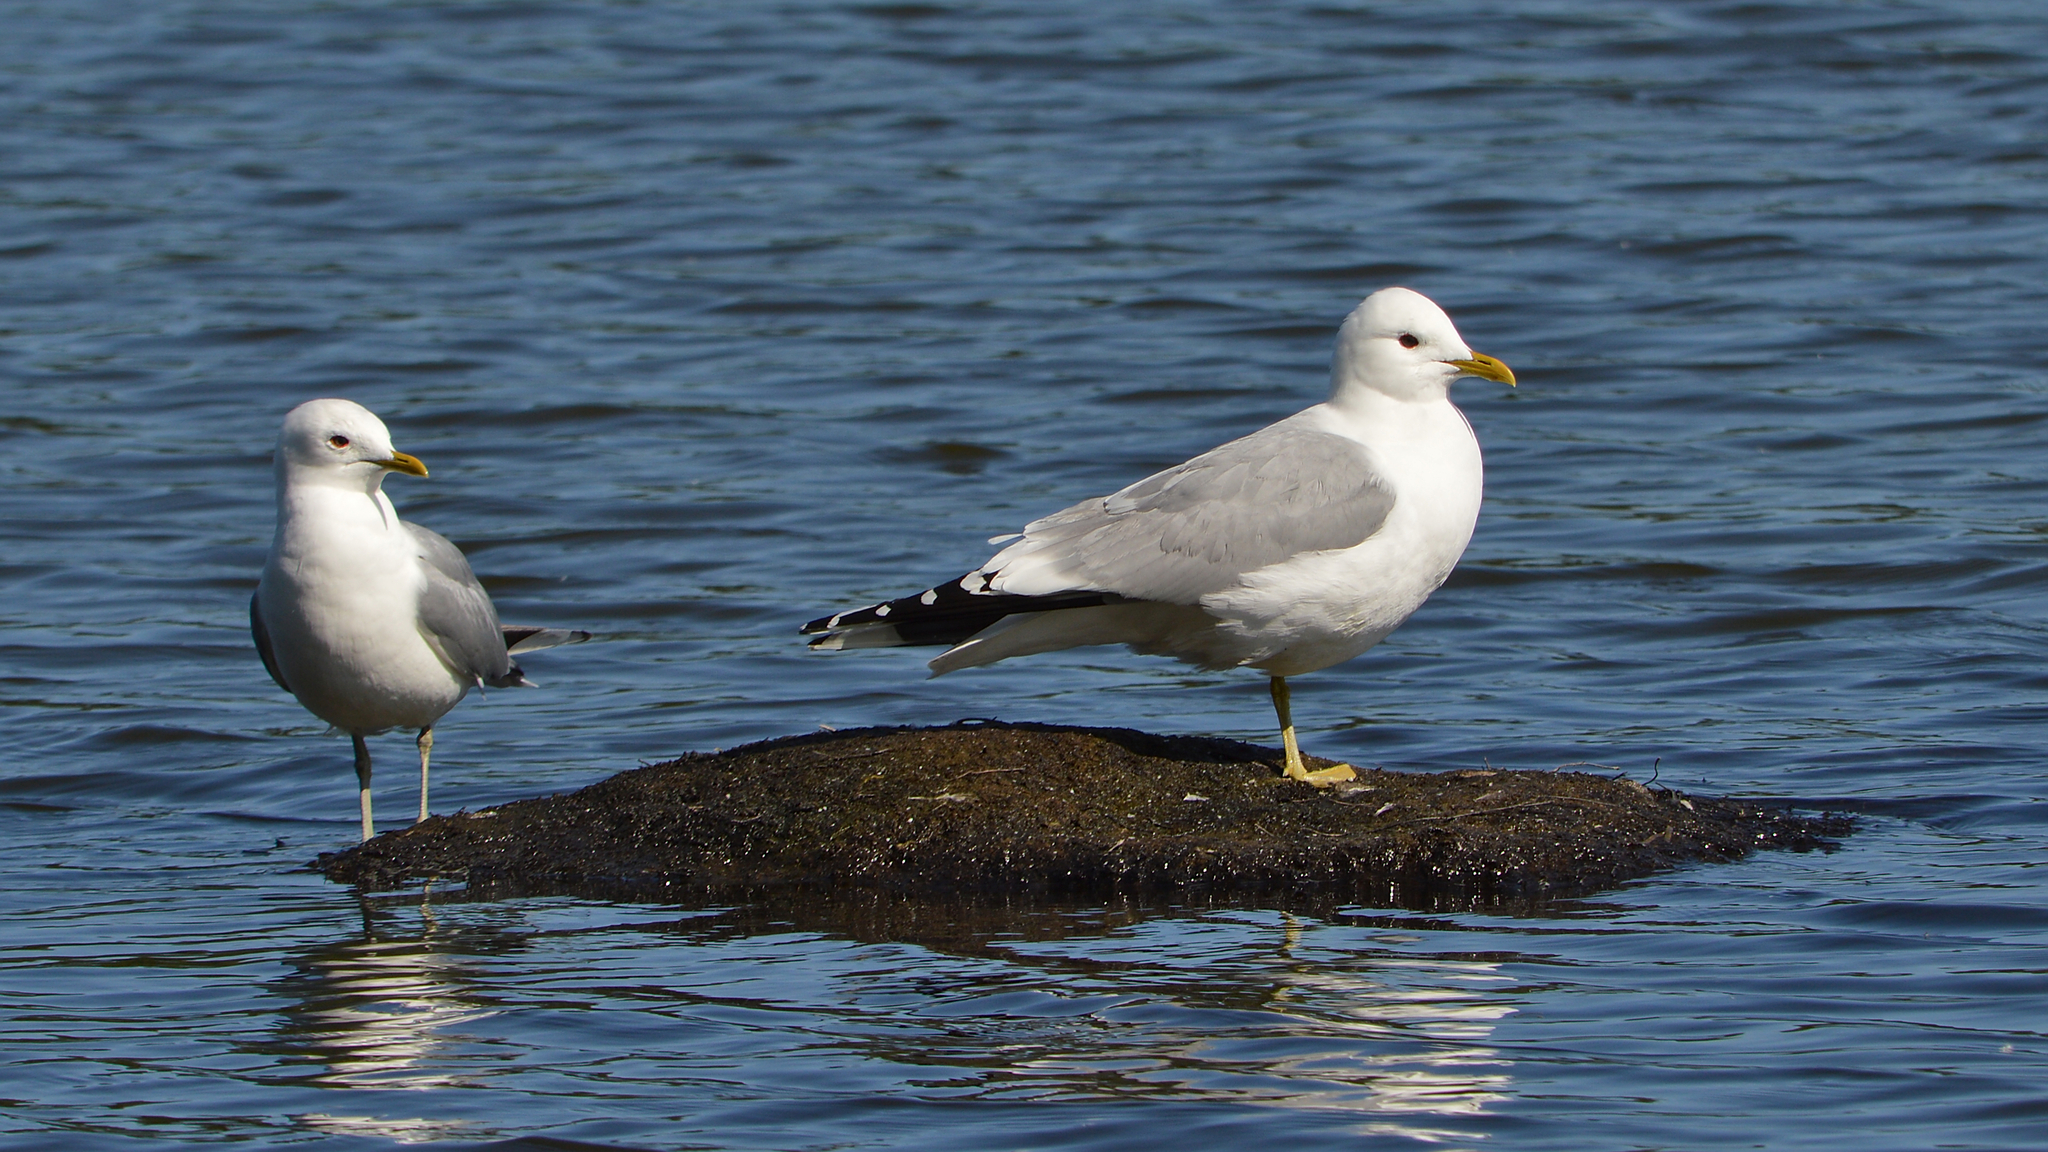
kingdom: Animalia
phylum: Chordata
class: Aves
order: Charadriiformes
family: Laridae
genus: Larus
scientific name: Larus canus
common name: Mew gull
